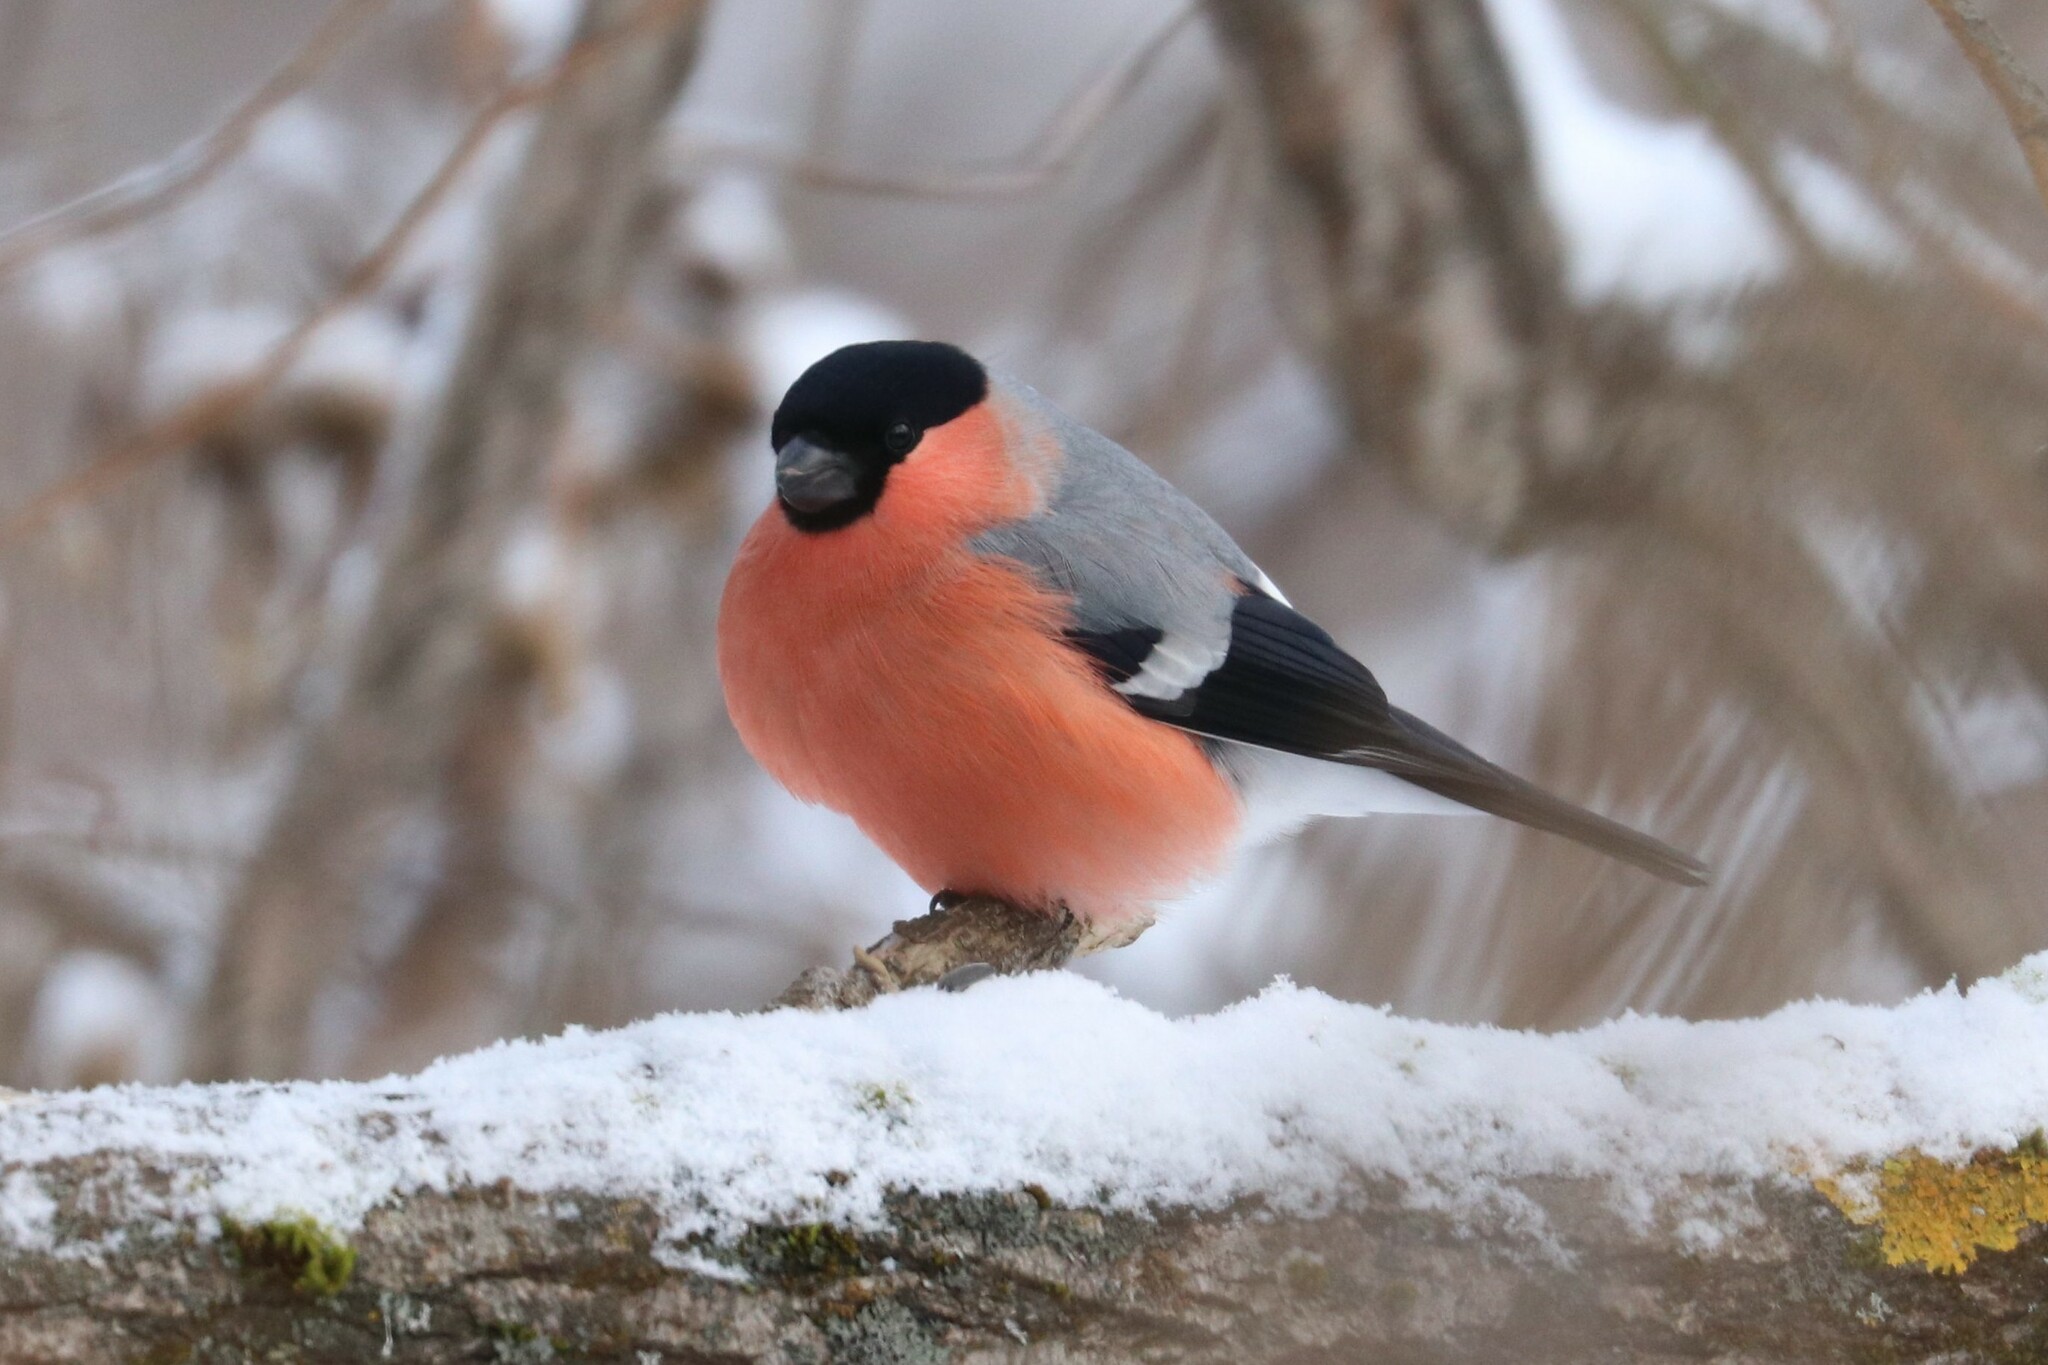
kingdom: Animalia
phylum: Chordata
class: Aves
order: Passeriformes
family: Fringillidae
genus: Pyrrhula
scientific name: Pyrrhula pyrrhula
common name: Eurasian bullfinch
